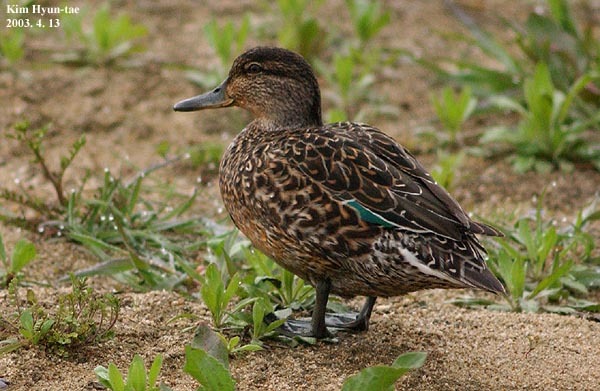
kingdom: Animalia
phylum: Chordata
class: Aves
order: Anseriformes
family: Anatidae
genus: Anas
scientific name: Anas crecca
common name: Eurasian teal
